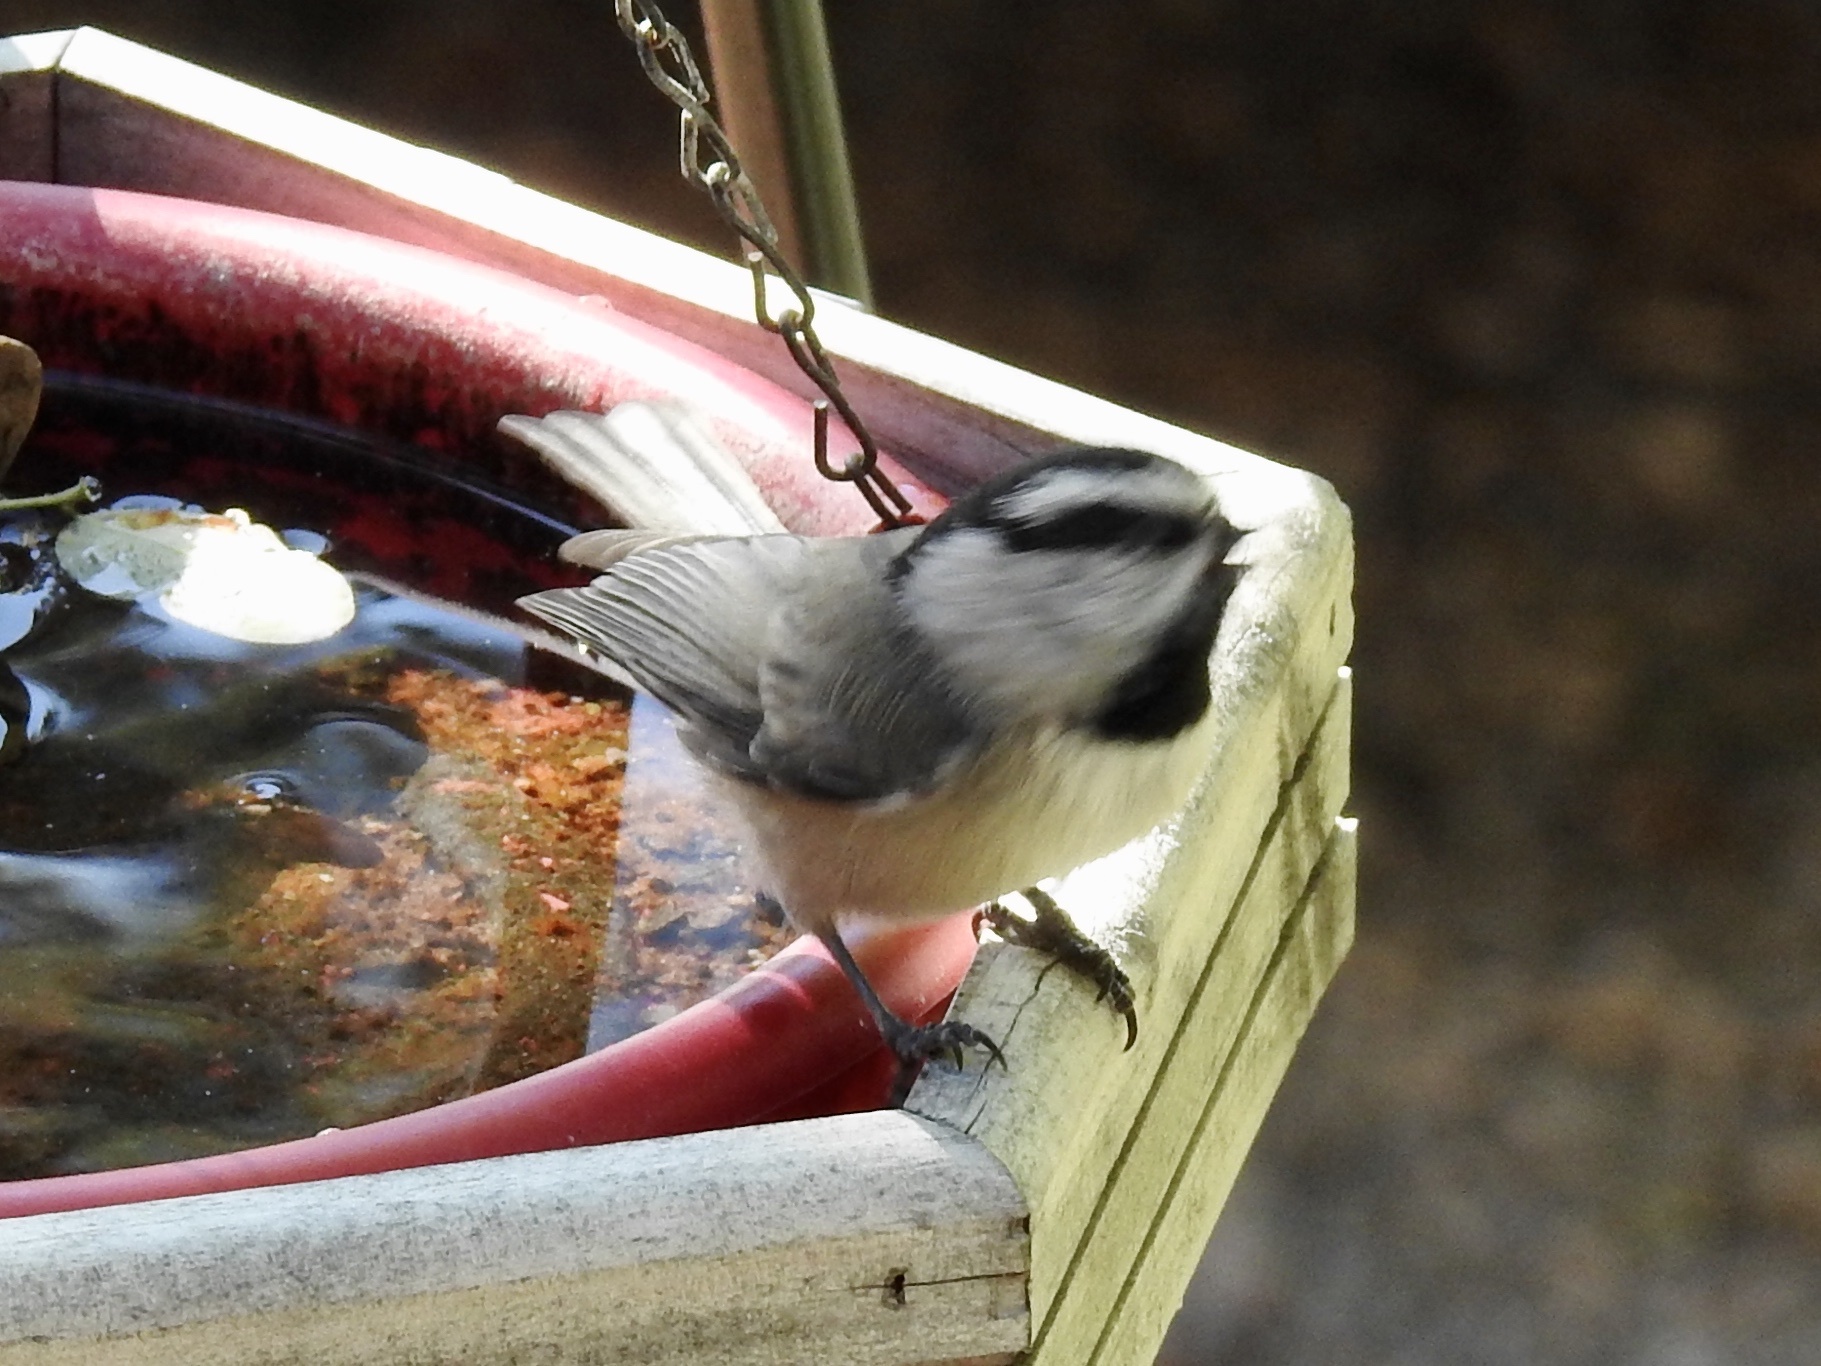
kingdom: Animalia
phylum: Chordata
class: Aves
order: Passeriformes
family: Paridae
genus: Poecile
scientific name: Poecile gambeli
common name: Mountain chickadee
